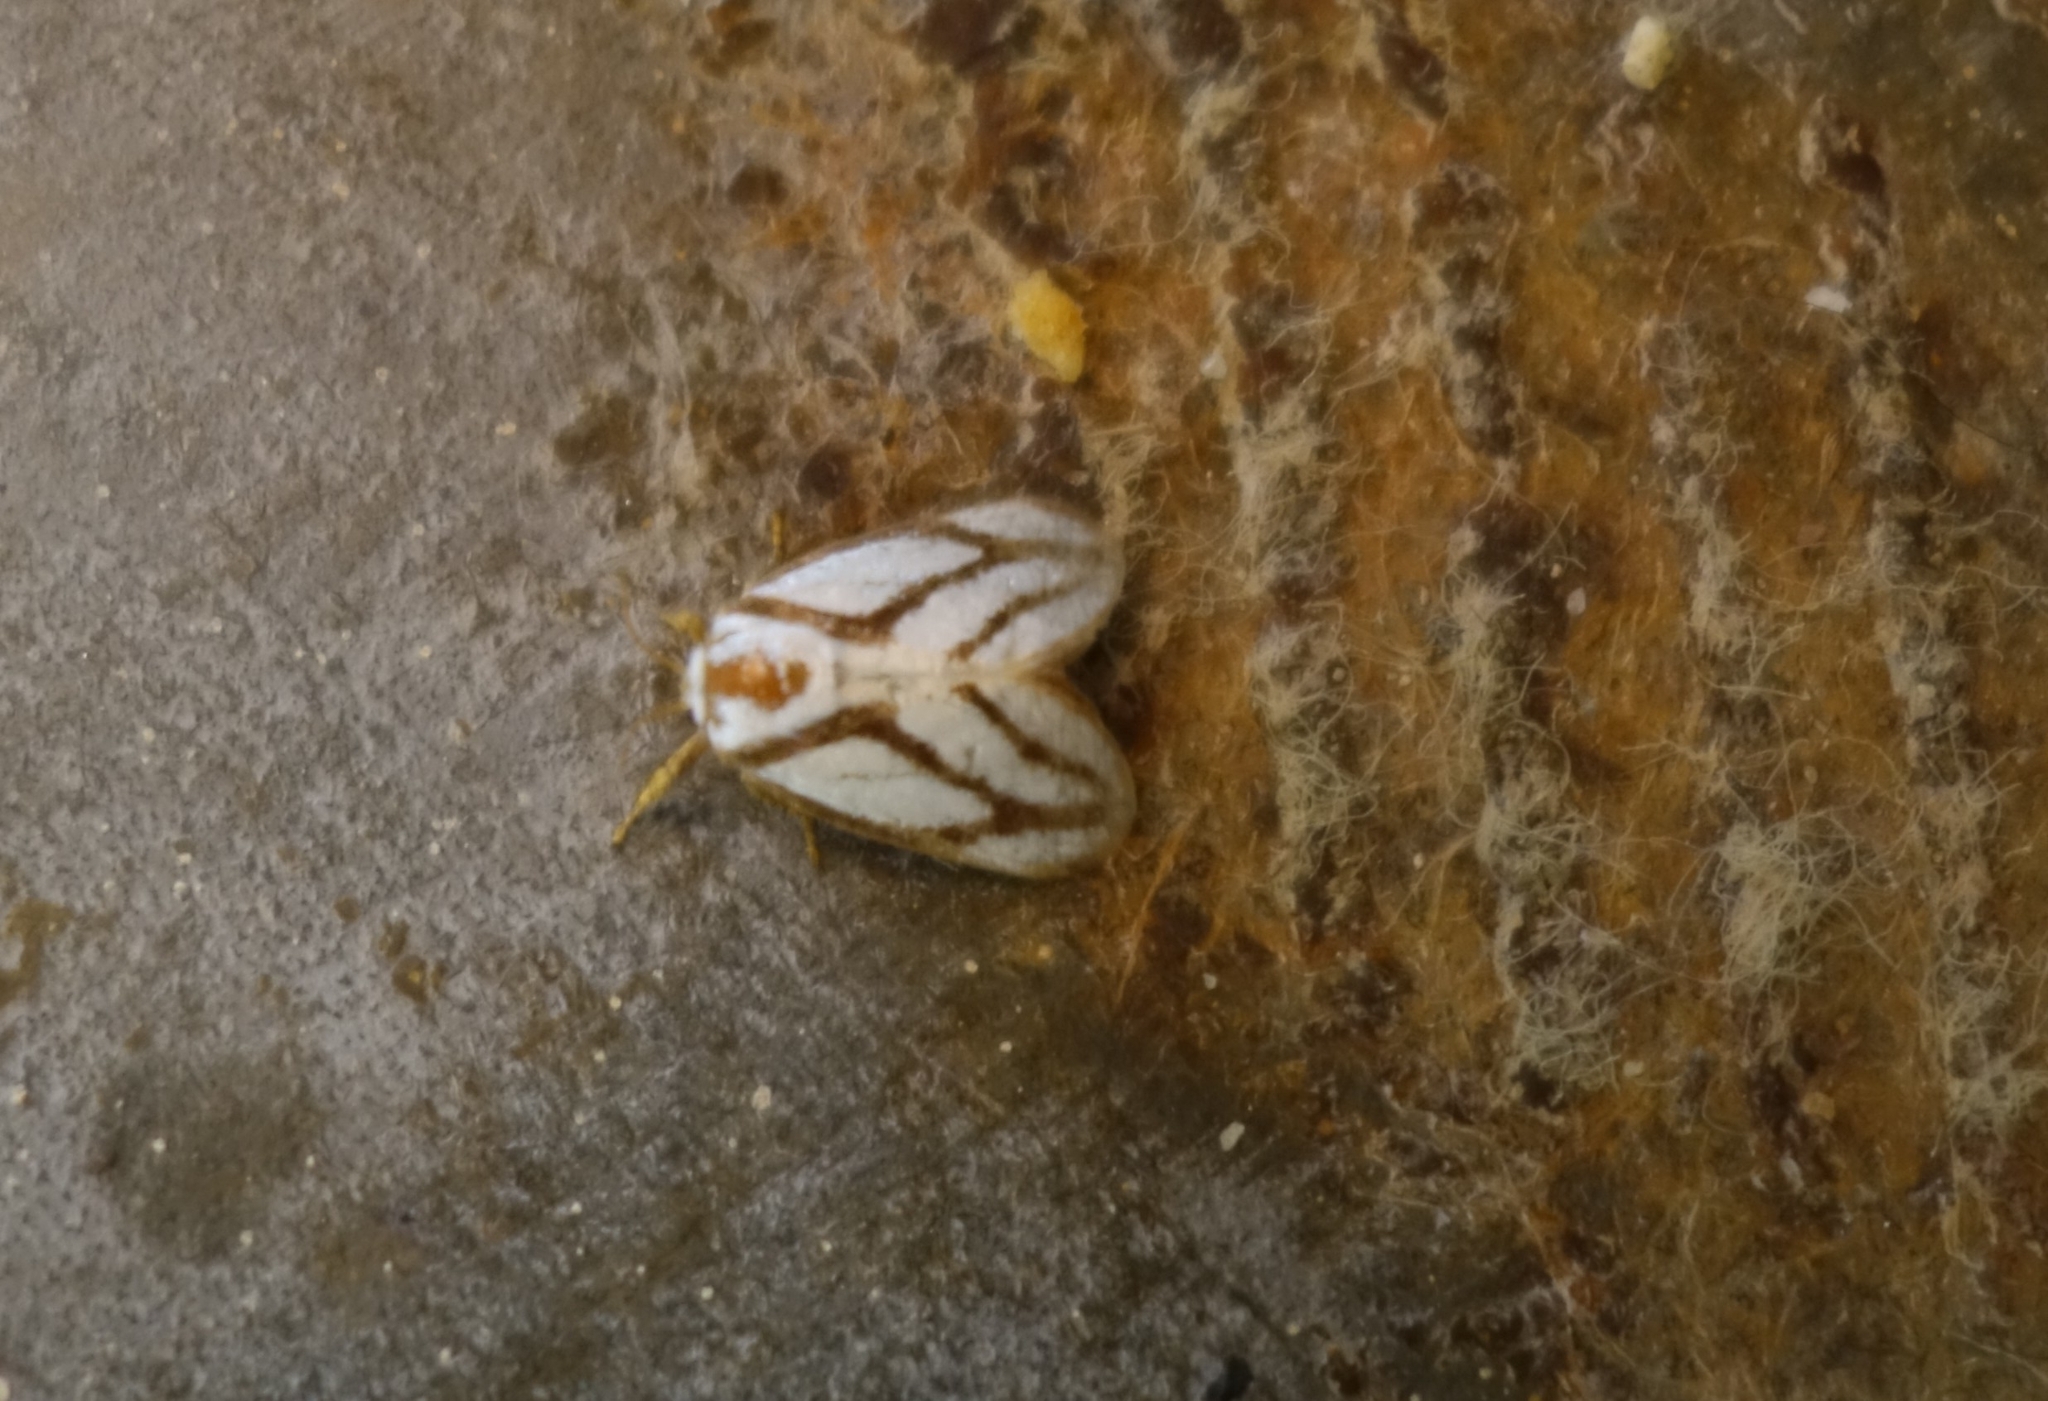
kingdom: Animalia
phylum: Arthropoda
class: Insecta
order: Lepidoptera
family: Limacodidae
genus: Parapluda
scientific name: Parapluda invitabilis
